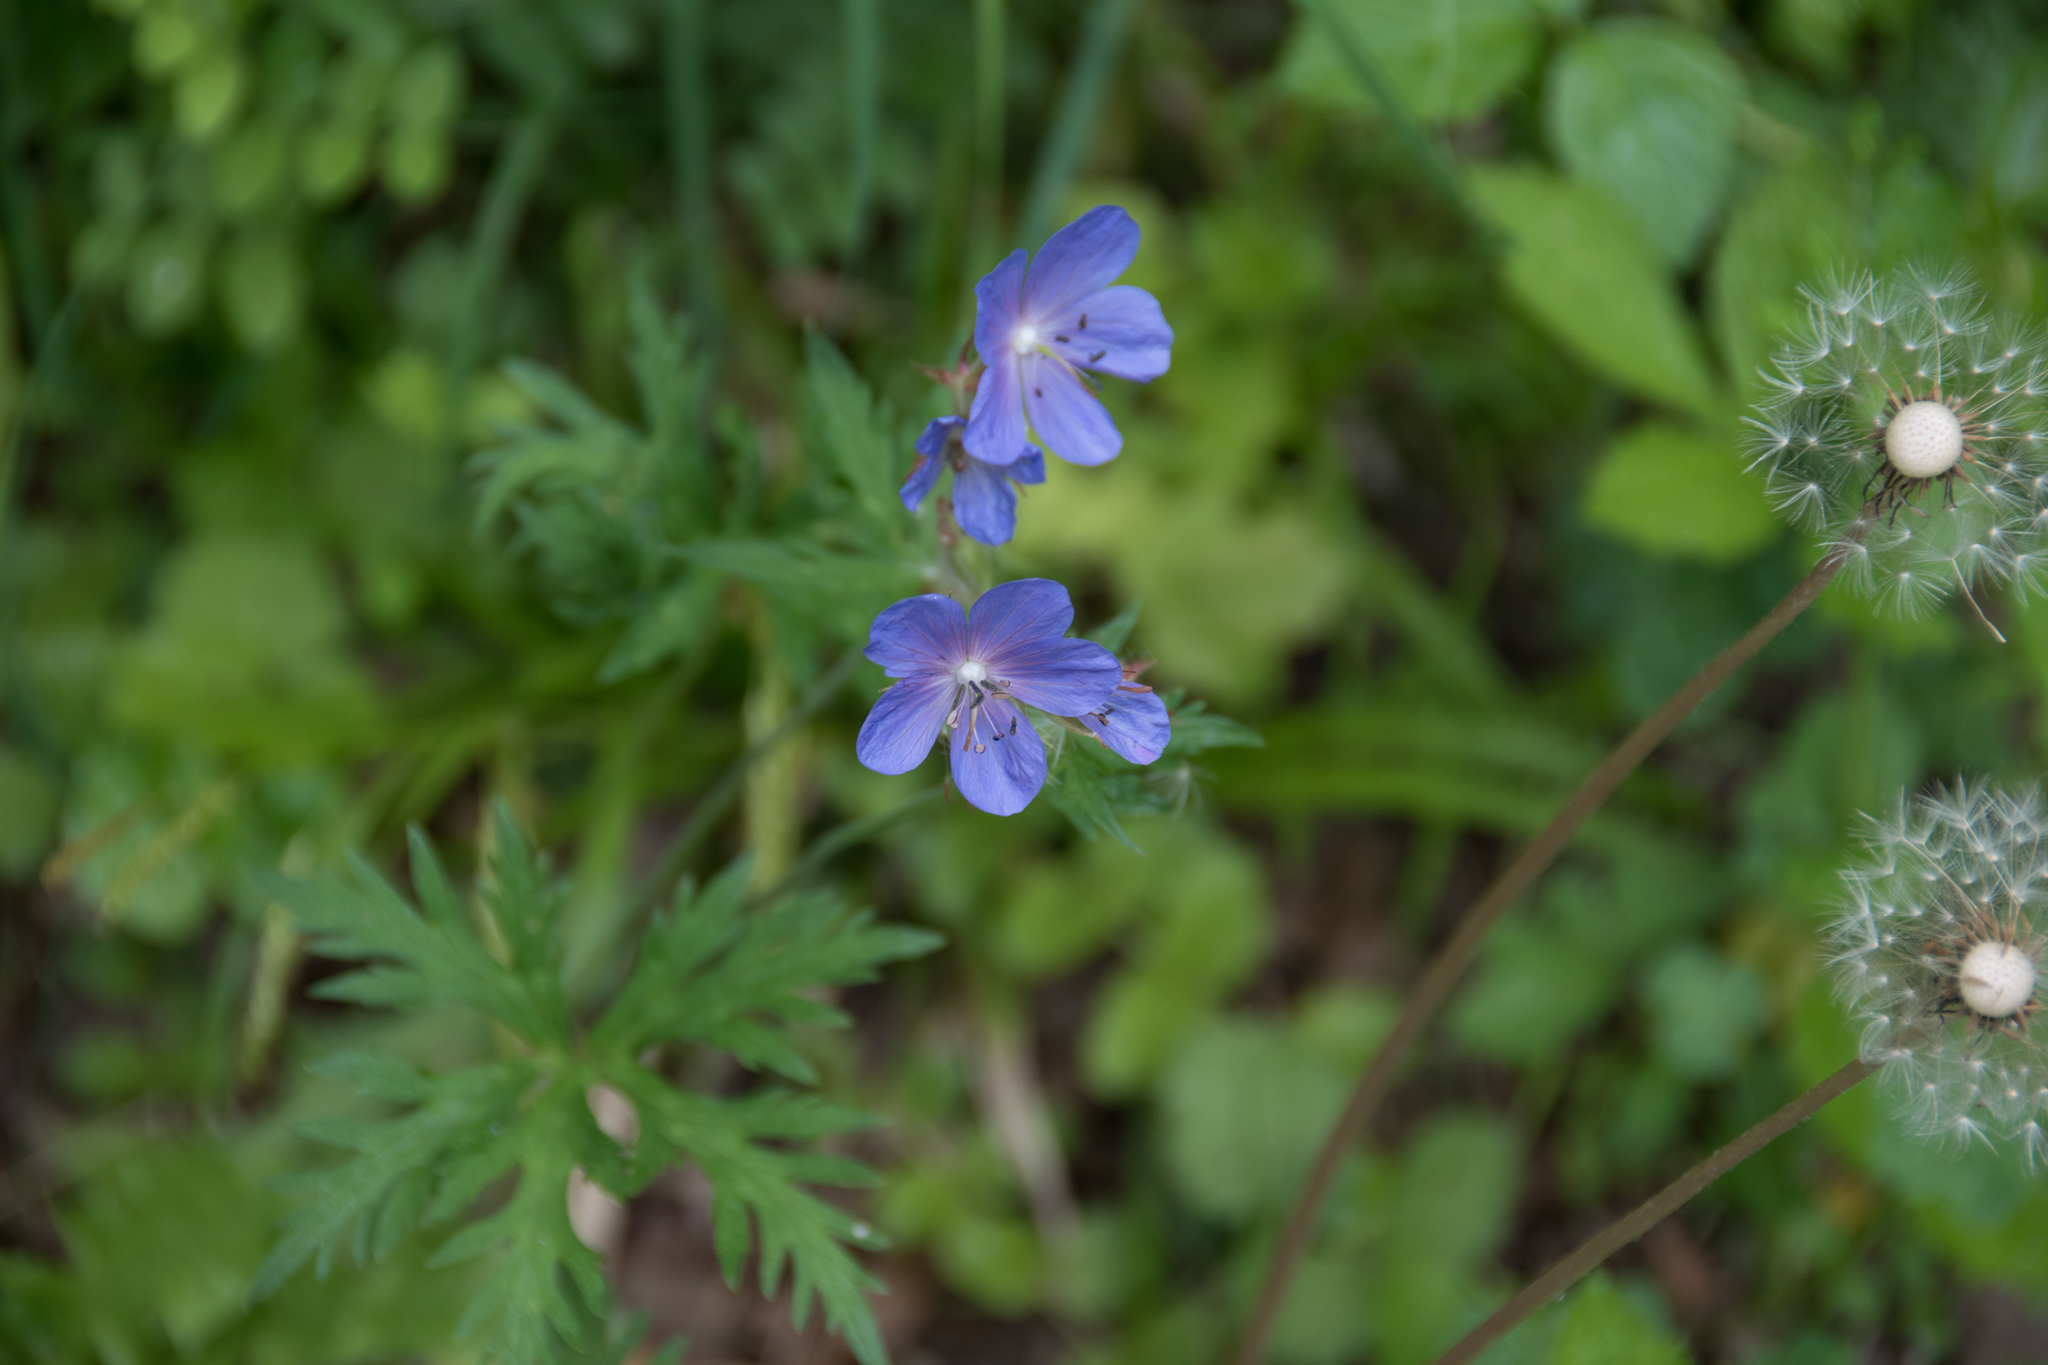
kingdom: Plantae
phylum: Tracheophyta
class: Magnoliopsida
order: Geraniales
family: Geraniaceae
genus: Geranium
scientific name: Geranium pratense
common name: Meadow crane's-bill
